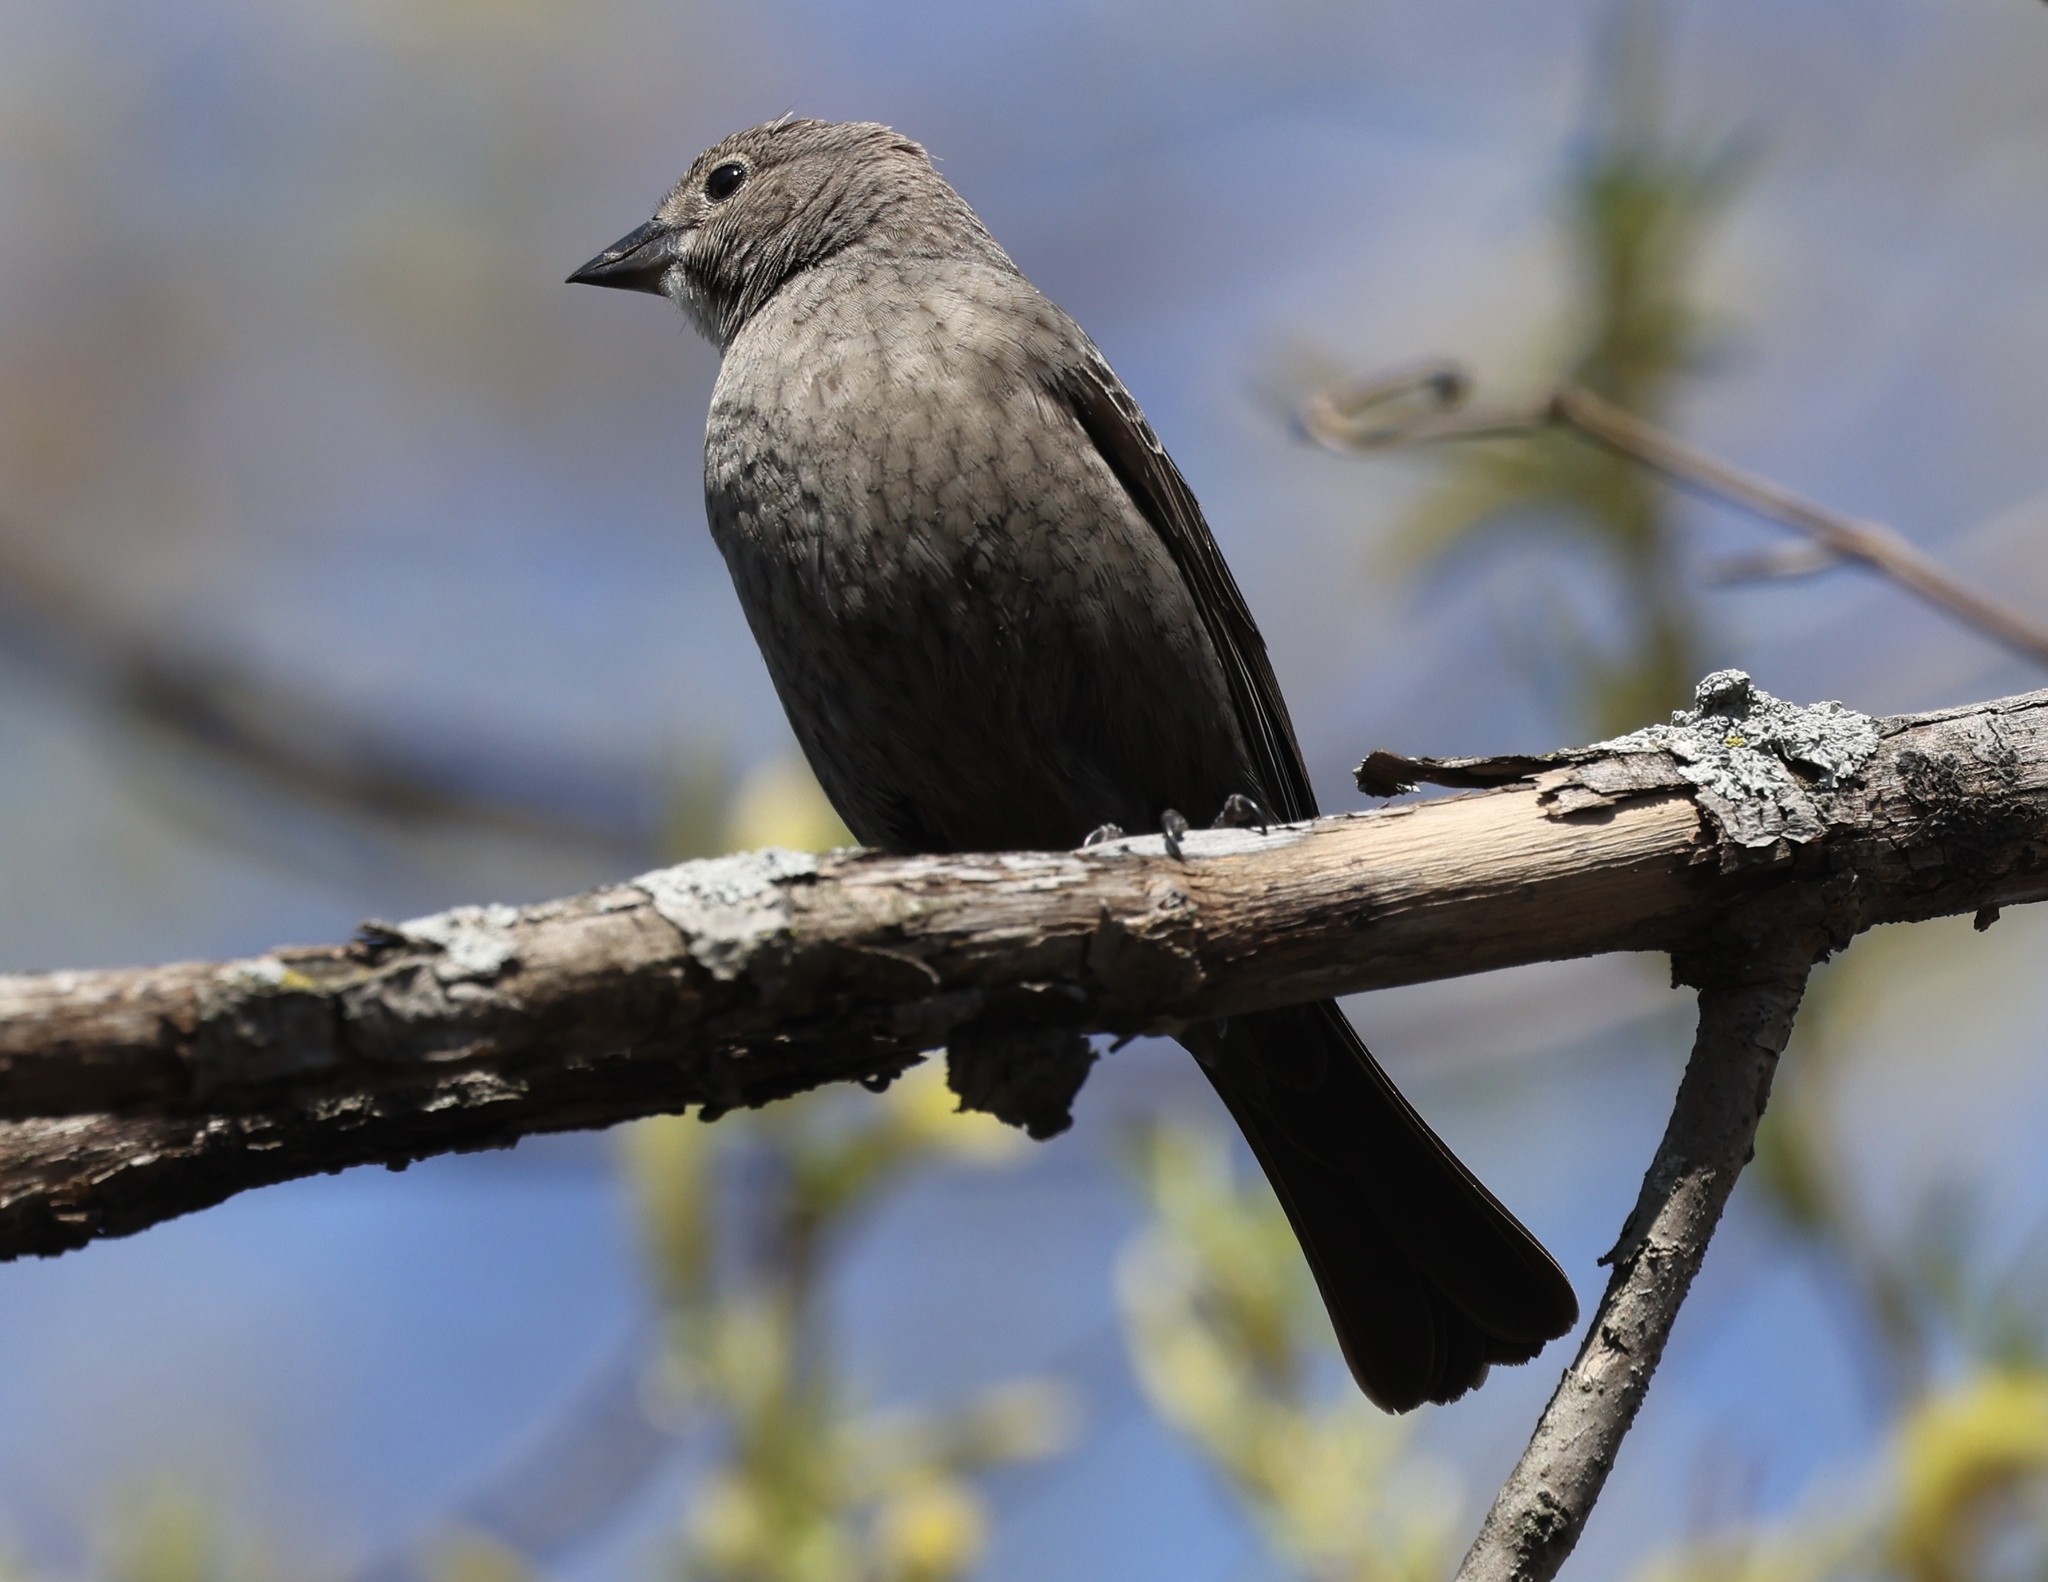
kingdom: Animalia
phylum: Chordata
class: Aves
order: Passeriformes
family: Icteridae
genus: Molothrus
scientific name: Molothrus ater
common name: Brown-headed cowbird
